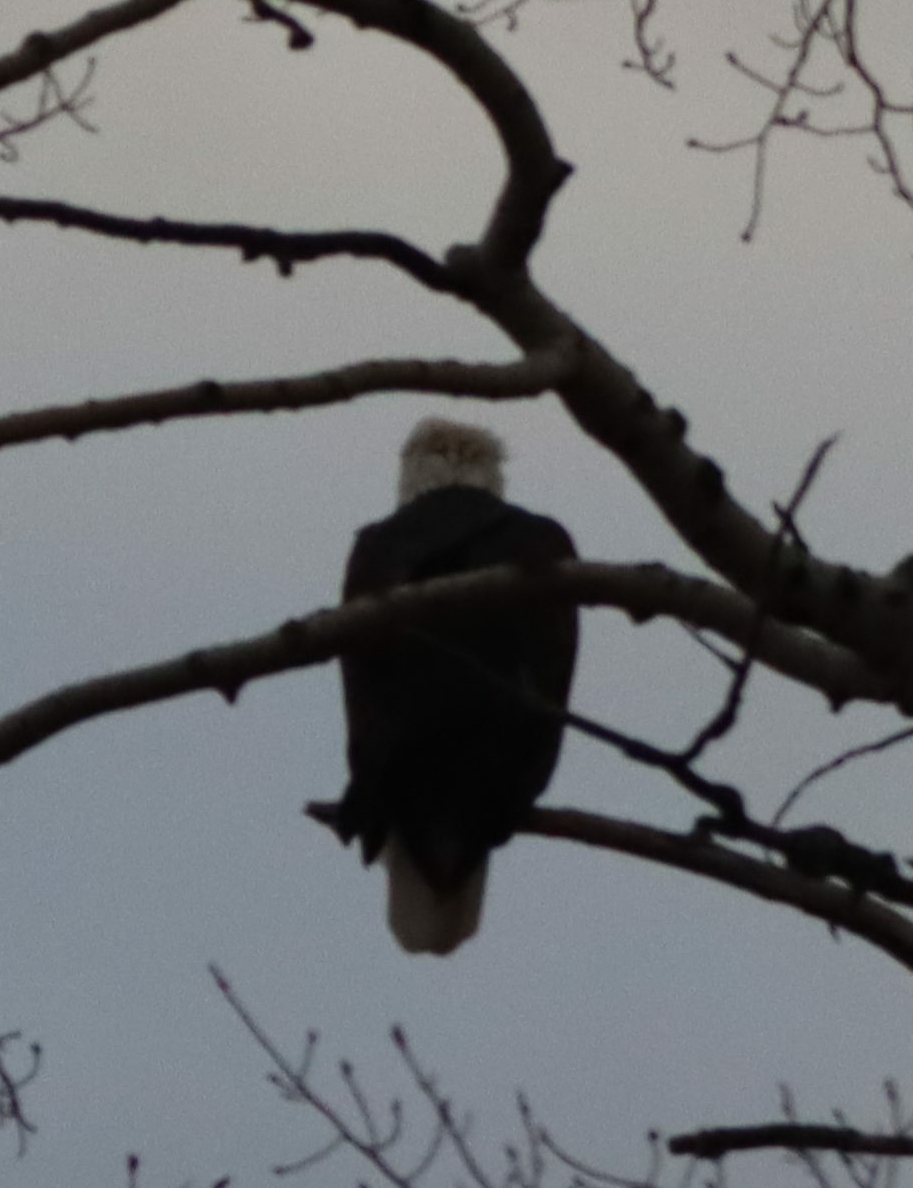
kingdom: Animalia
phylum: Chordata
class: Aves
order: Accipitriformes
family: Accipitridae
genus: Haliaeetus
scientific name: Haliaeetus leucocephalus
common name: Bald eagle
